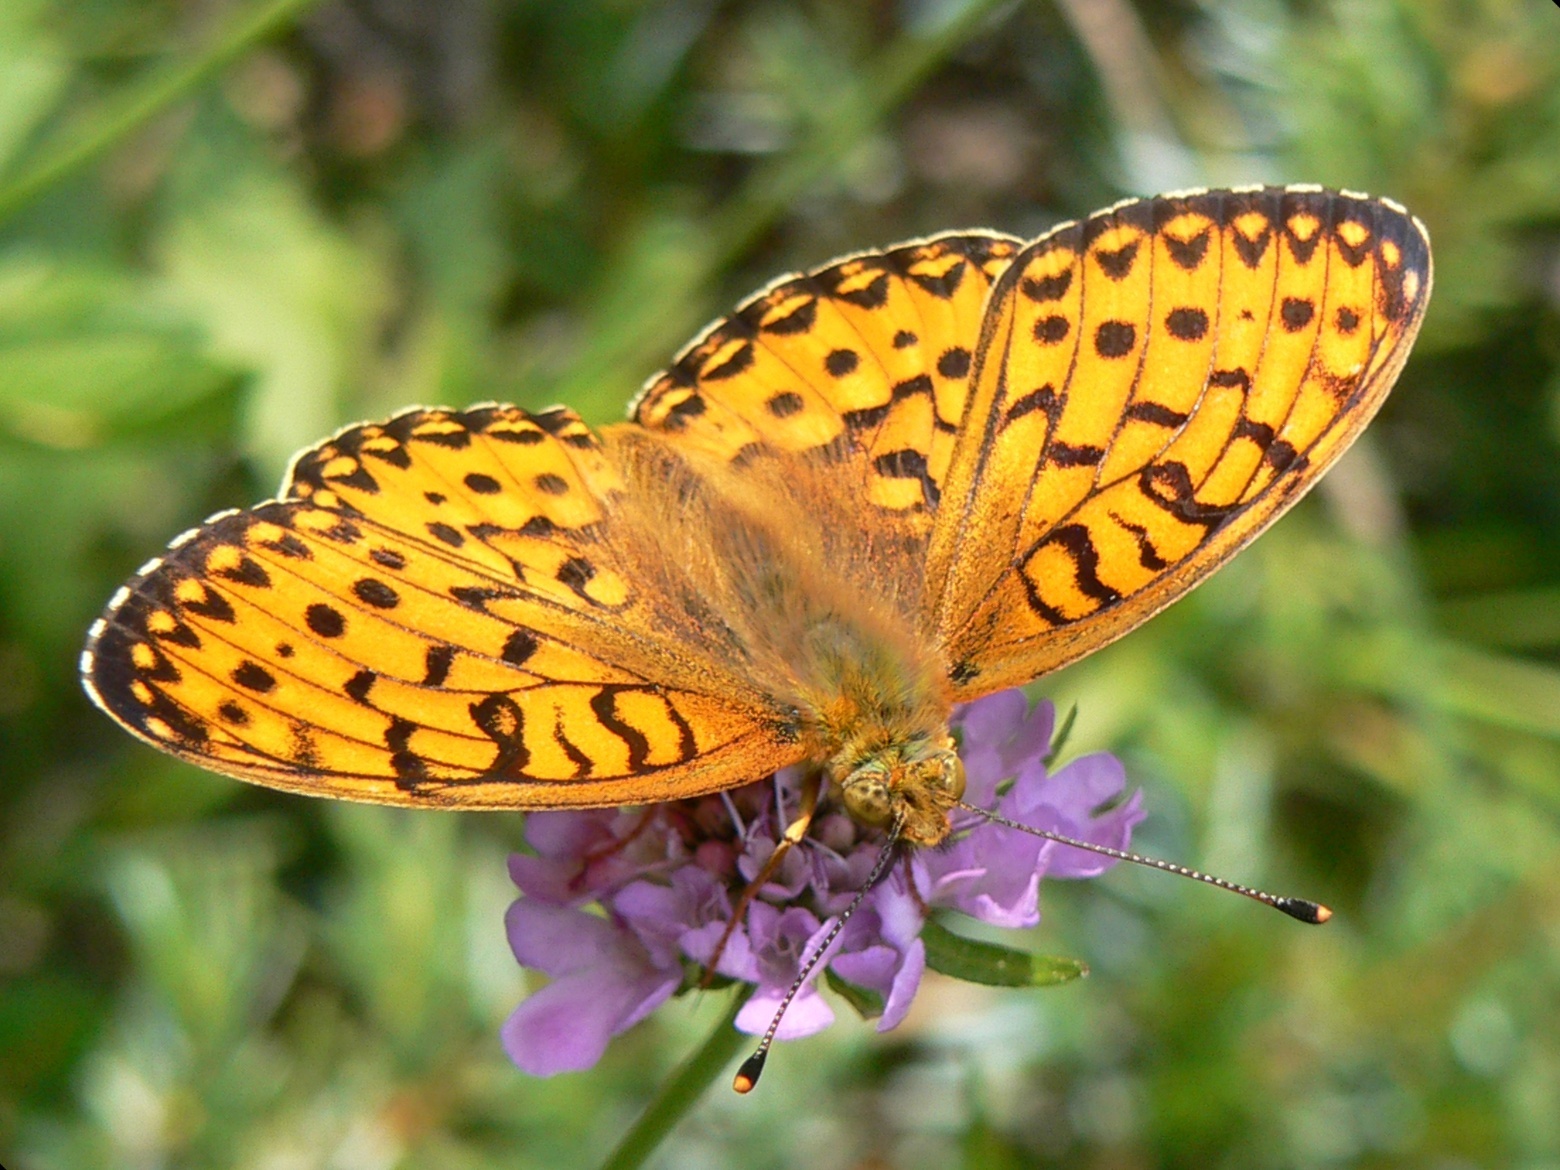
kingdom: Animalia
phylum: Arthropoda
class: Insecta
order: Lepidoptera
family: Nymphalidae
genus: Speyeria
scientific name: Speyeria aglaja
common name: Dark green fritillary
